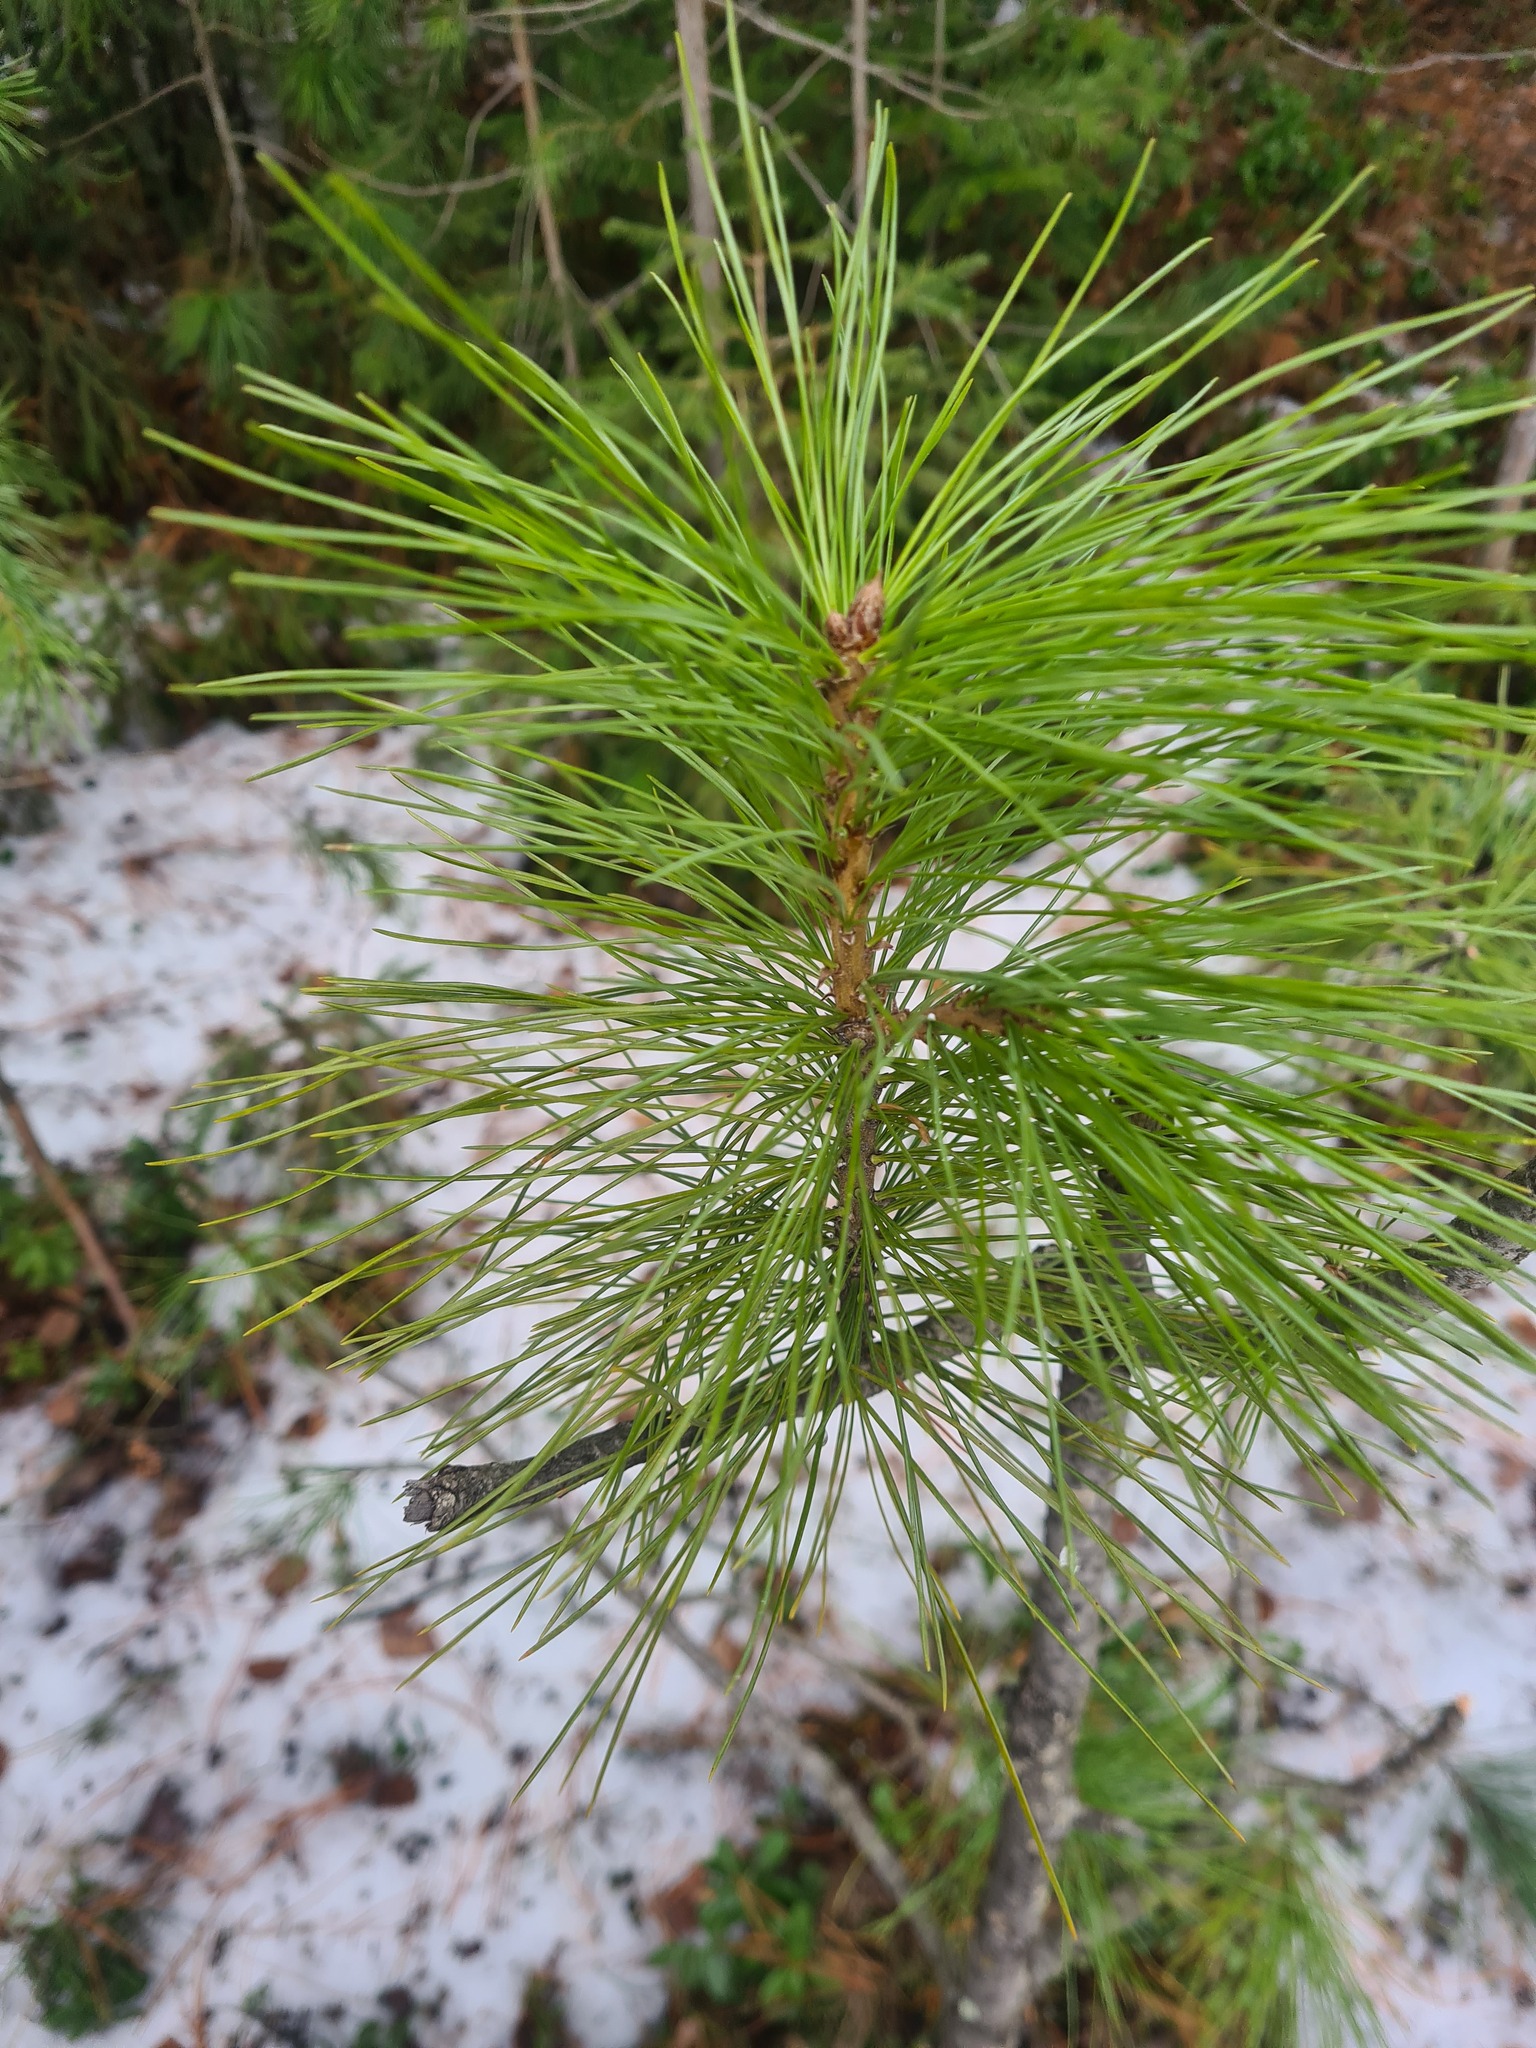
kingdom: Plantae
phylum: Tracheophyta
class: Pinopsida
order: Pinales
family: Pinaceae
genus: Pinus
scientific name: Pinus sibirica
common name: Siberian pine
